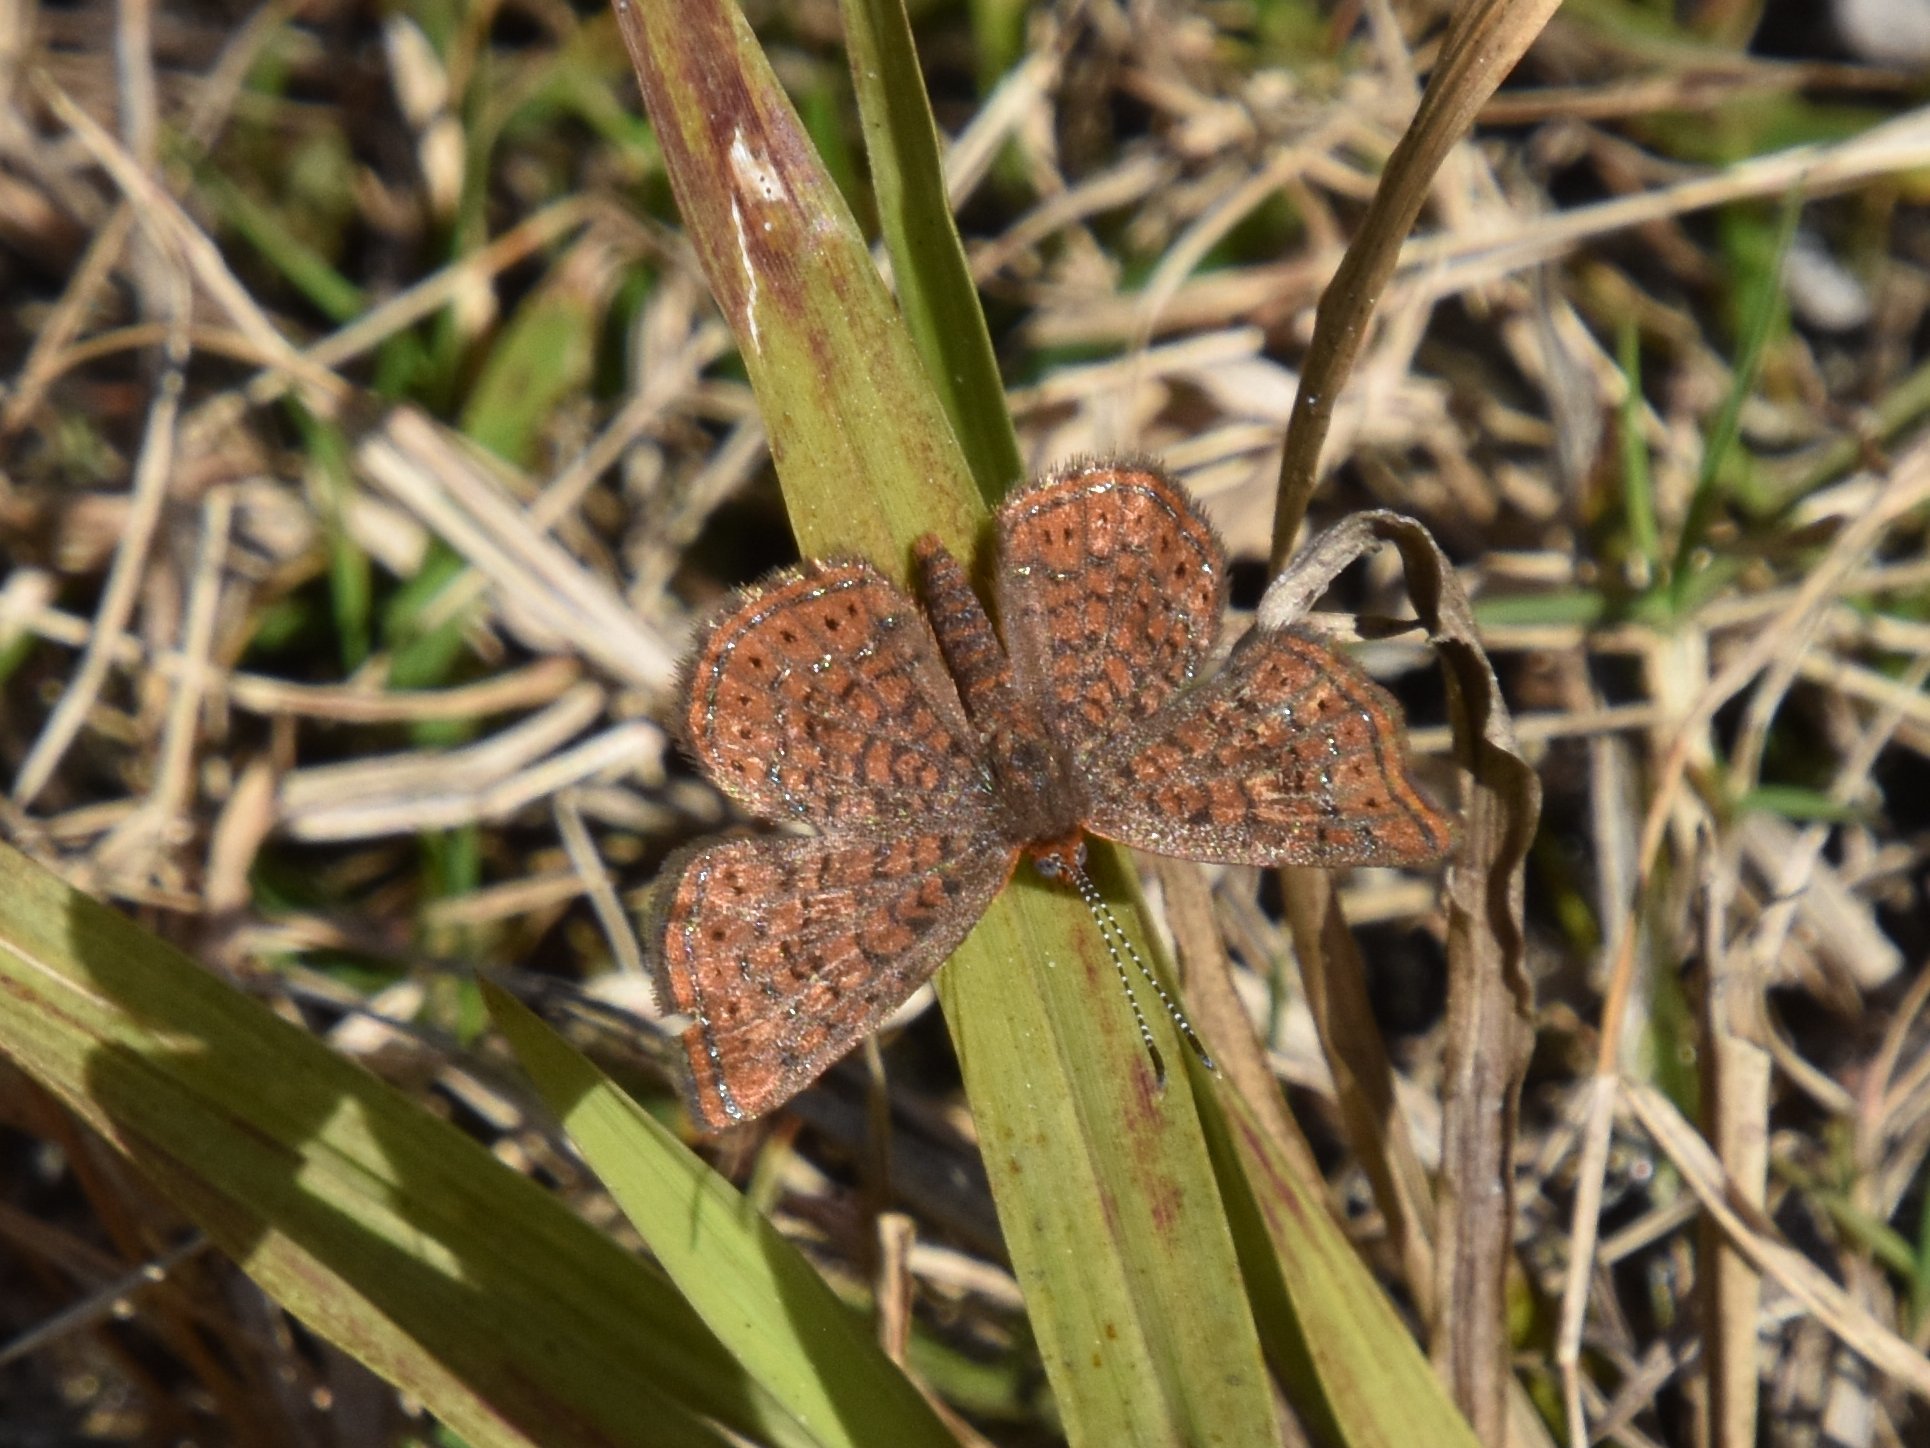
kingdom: Animalia
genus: Calephelis
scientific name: Calephelis virginiensis
